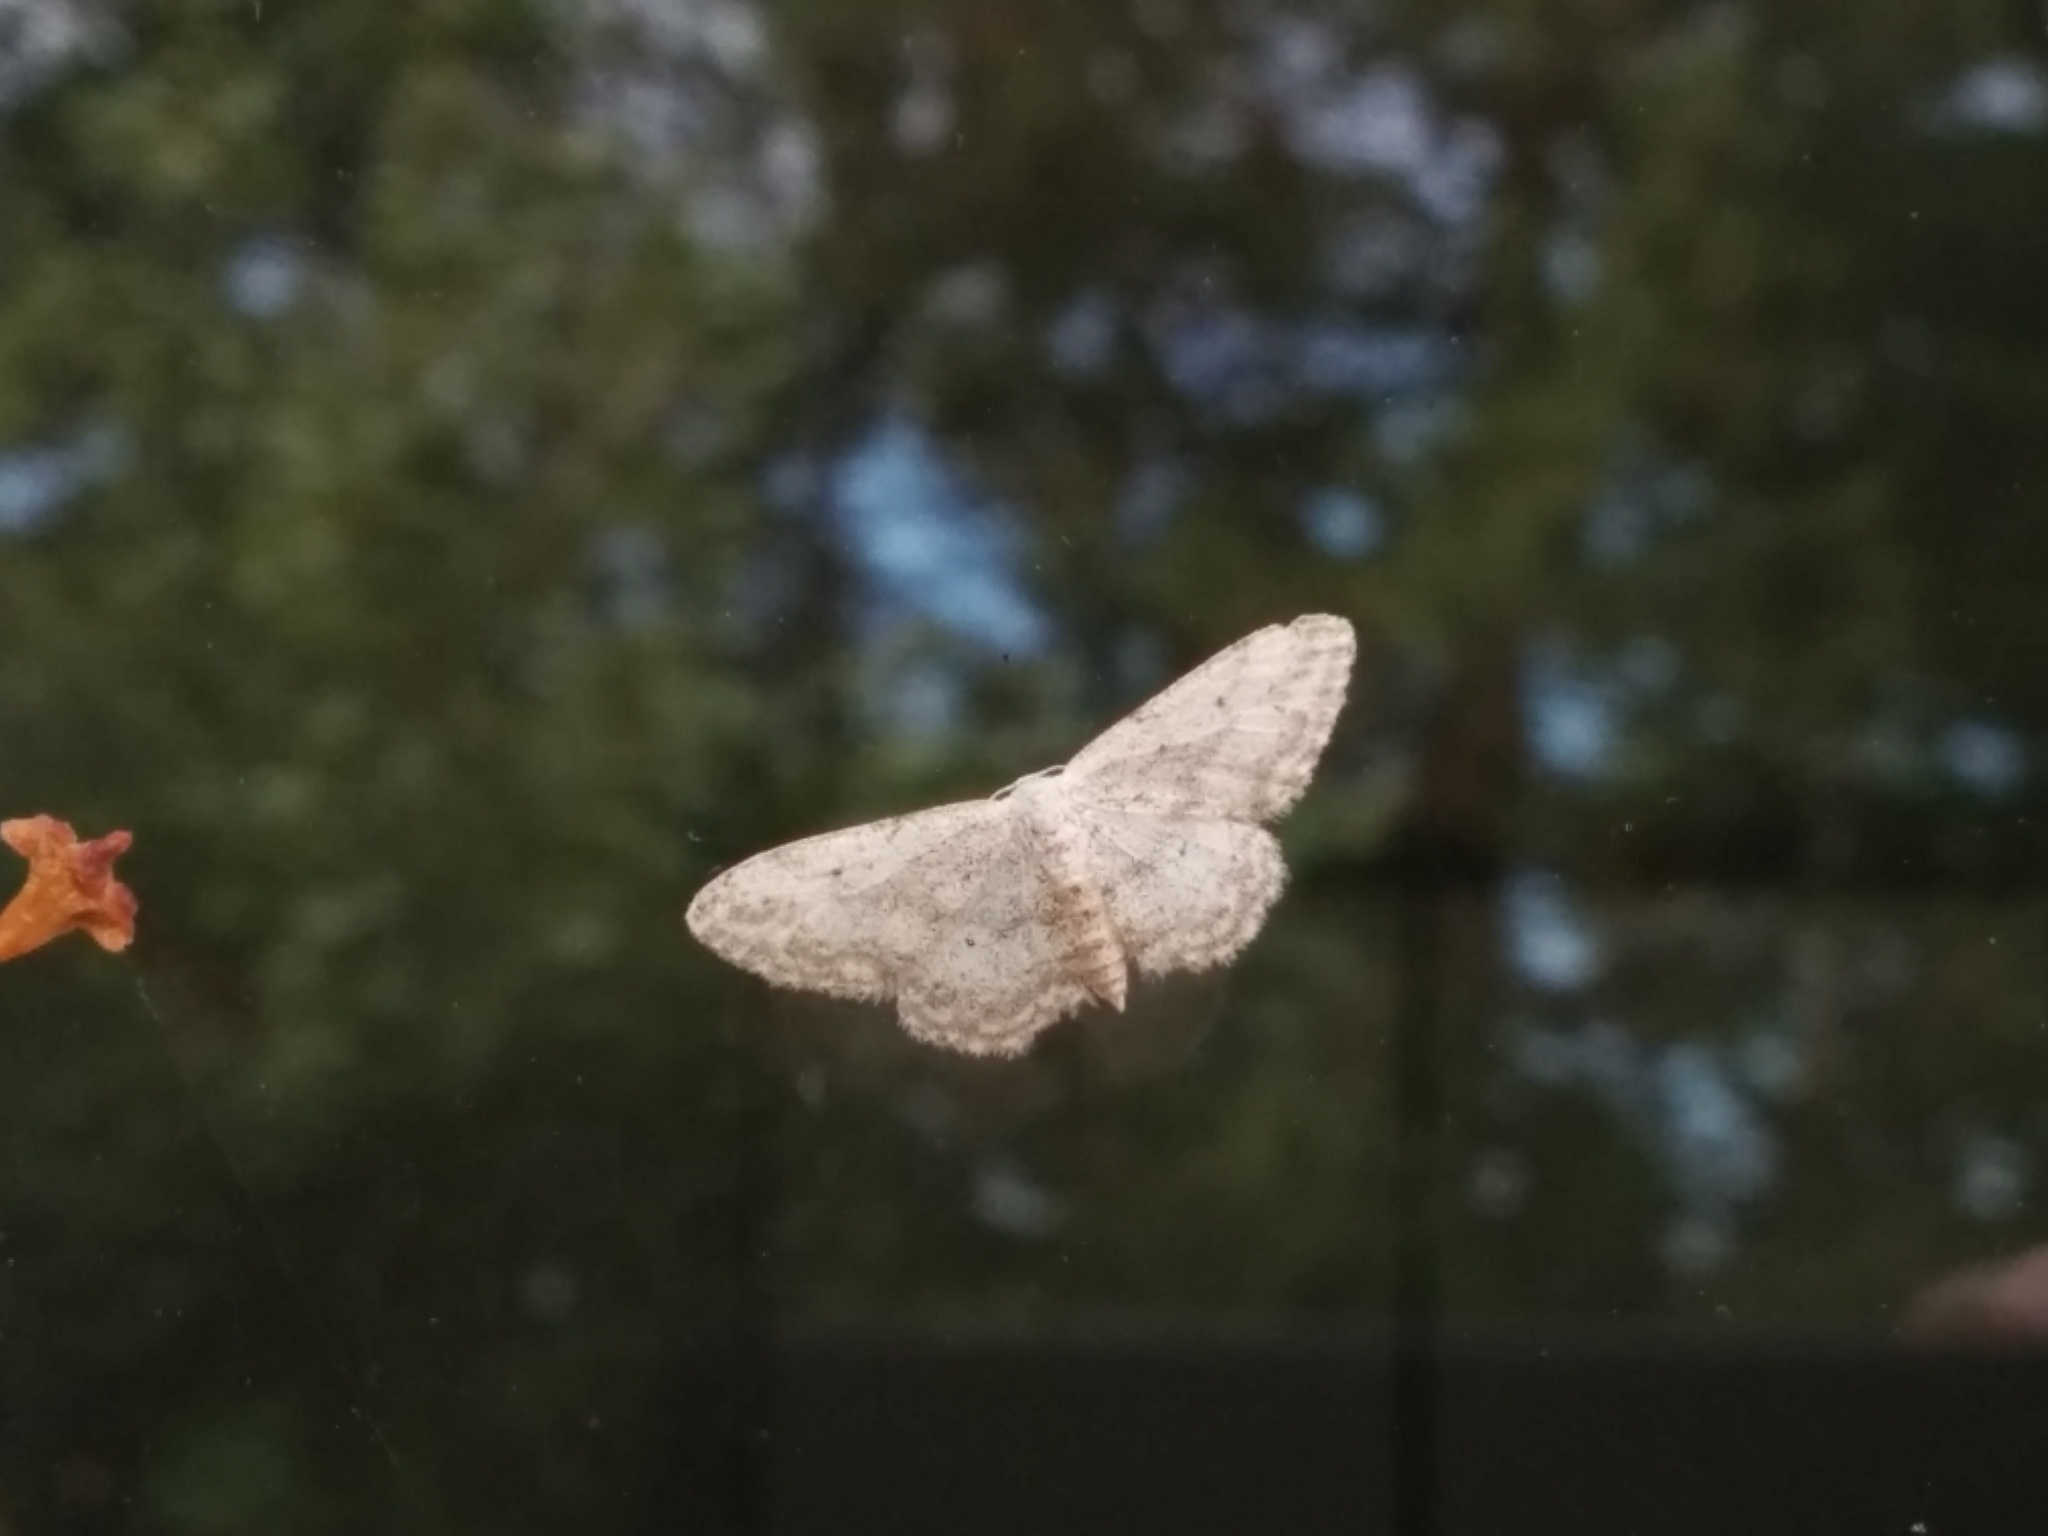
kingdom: Animalia
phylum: Arthropoda
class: Insecta
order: Lepidoptera
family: Geometridae
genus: Idaea
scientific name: Idaea seriata
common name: Small dusty wave
